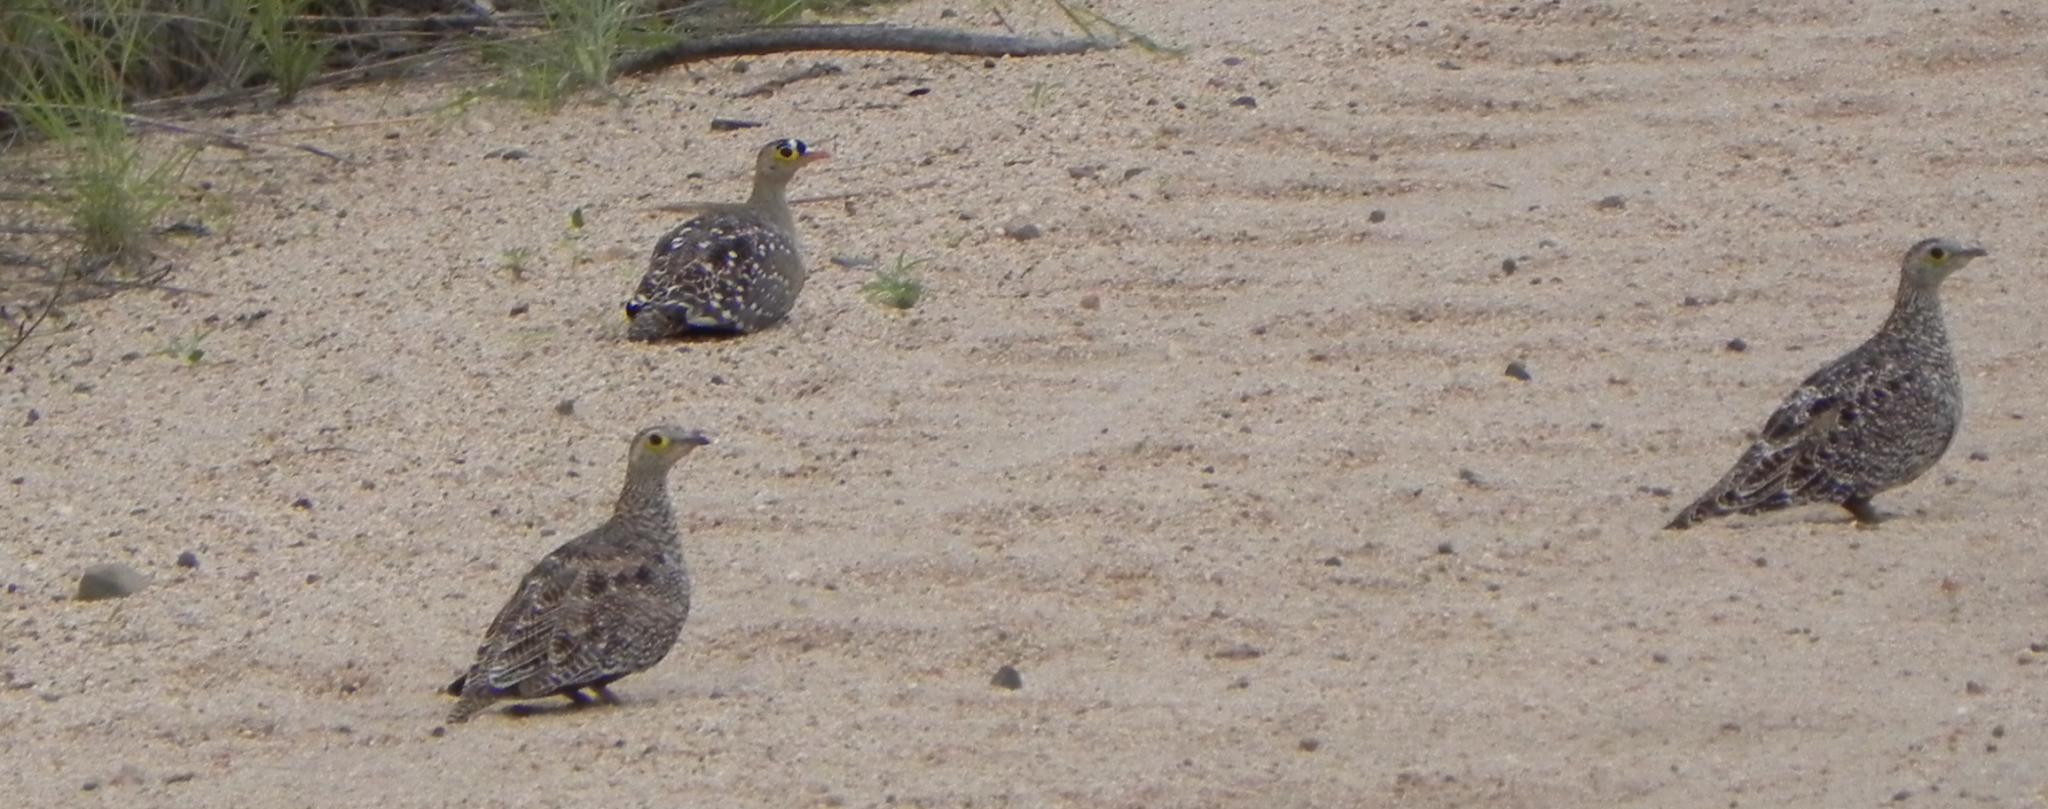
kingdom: Animalia
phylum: Chordata
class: Aves
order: Pteroclidiformes
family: Pteroclididae
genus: Pterocles
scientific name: Pterocles bicinctus
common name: Double-banded sandgrouse
